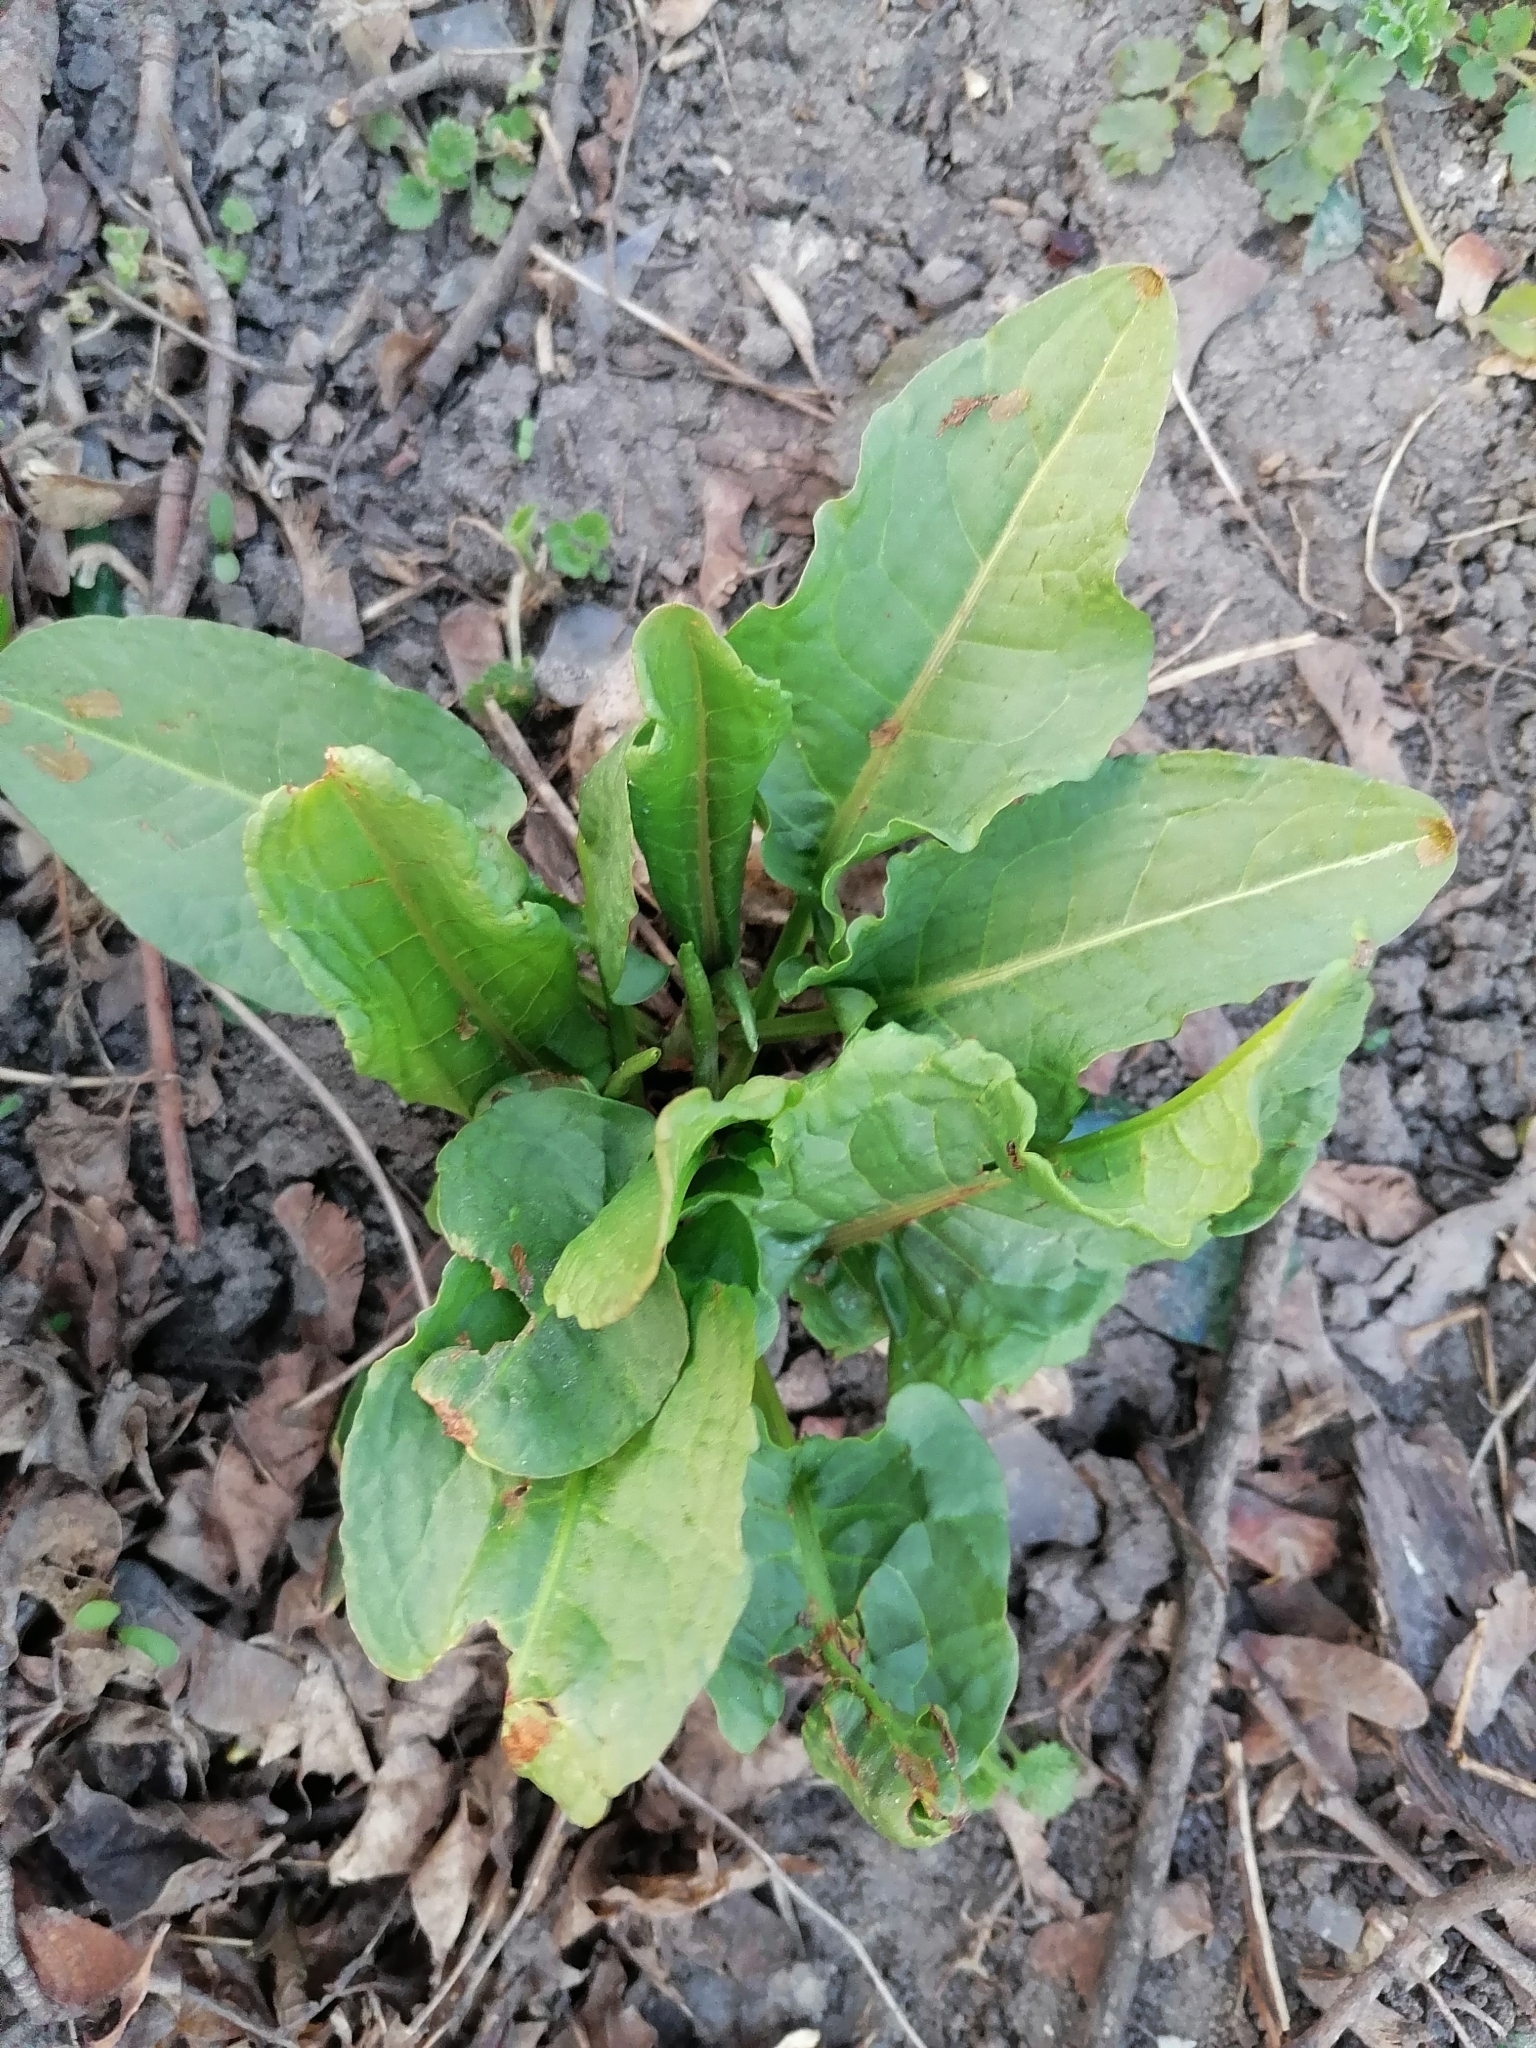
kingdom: Plantae
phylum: Tracheophyta
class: Magnoliopsida
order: Caryophyllales
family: Polygonaceae
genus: Rumex
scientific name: Rumex obtusifolius
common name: Bitter dock
